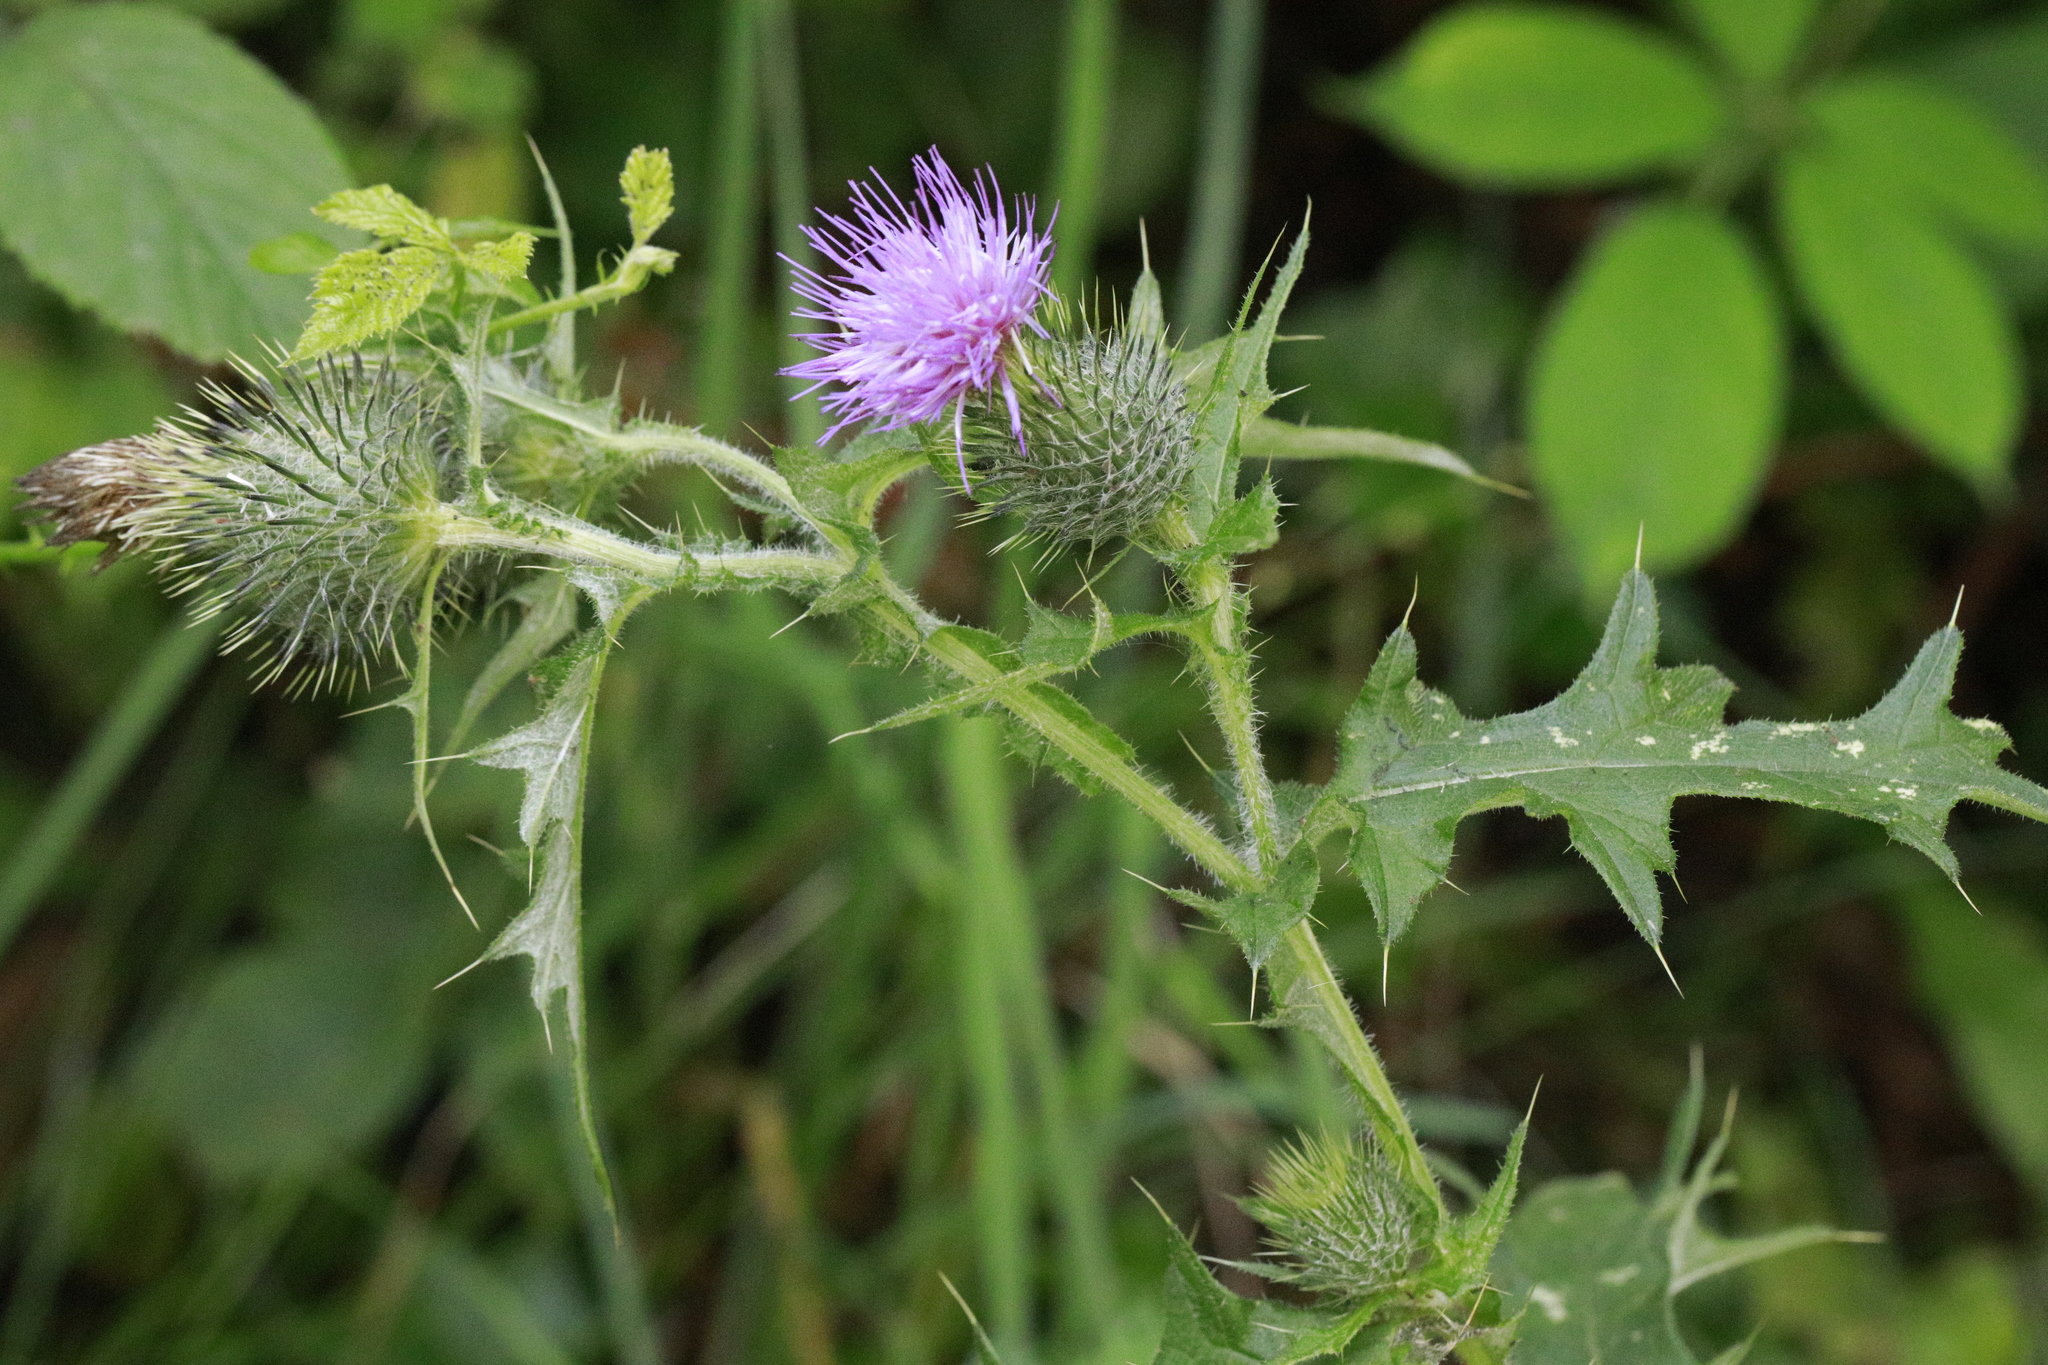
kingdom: Plantae
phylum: Tracheophyta
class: Magnoliopsida
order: Asterales
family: Asteraceae
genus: Cirsium
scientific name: Cirsium vulgare
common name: Bull thistle
